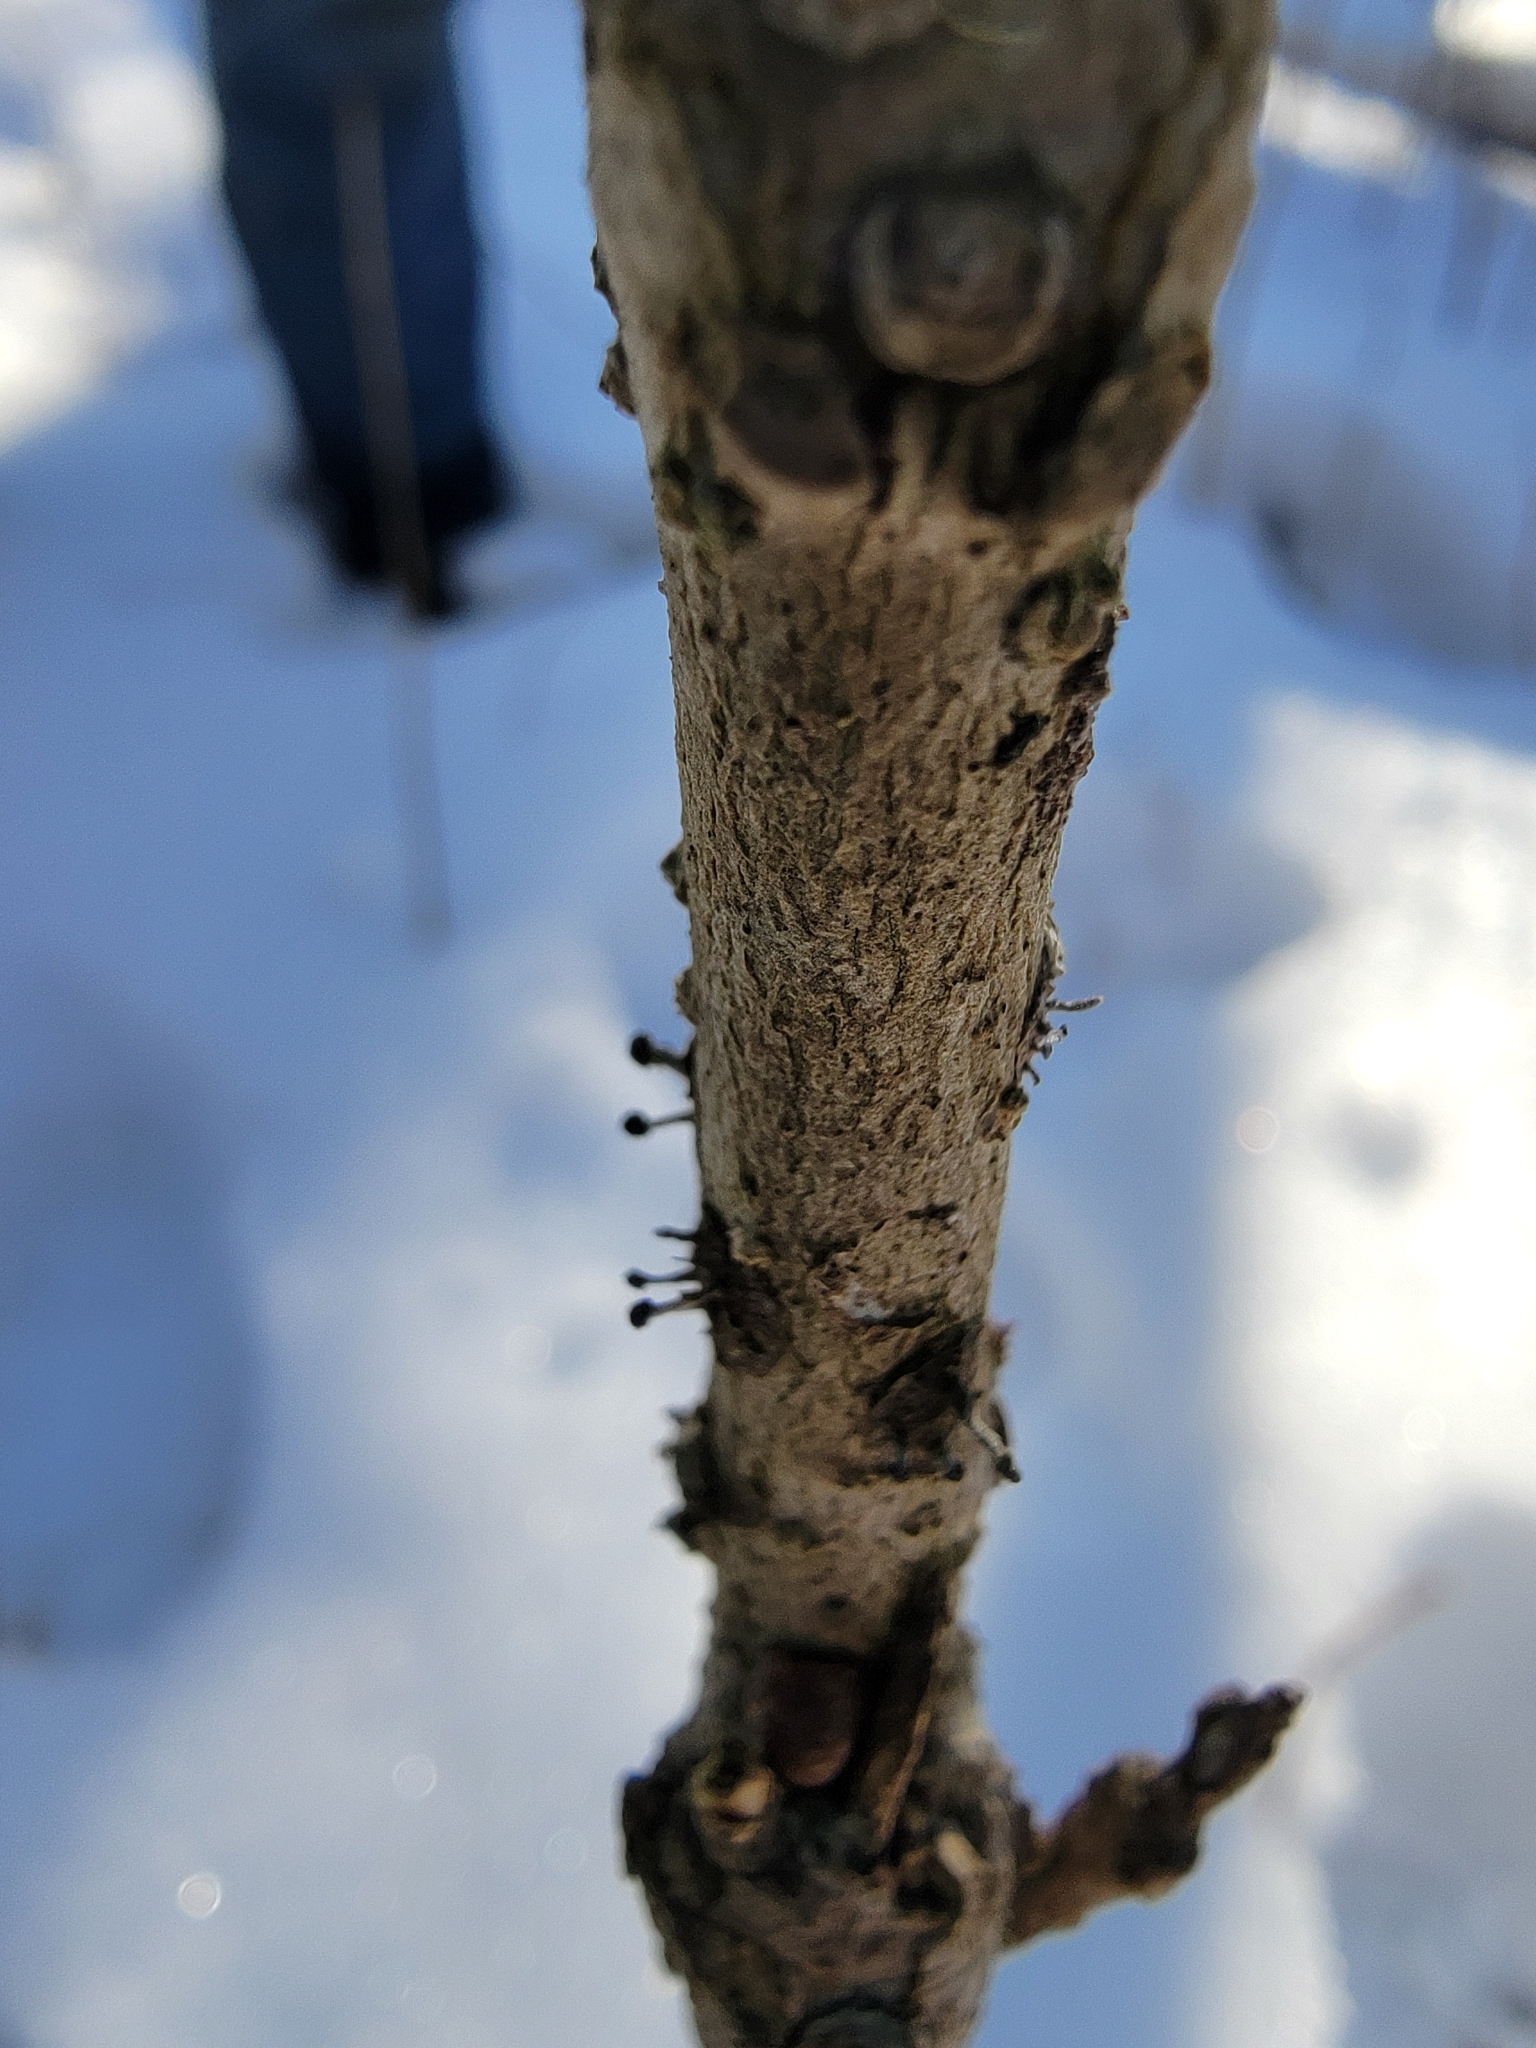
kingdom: Fungi
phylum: Ascomycota
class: Sordariomycetes
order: Hypocreales
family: Ophiocordycipitaceae
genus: Ophiocordyceps
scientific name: Ophiocordyceps clavulata
